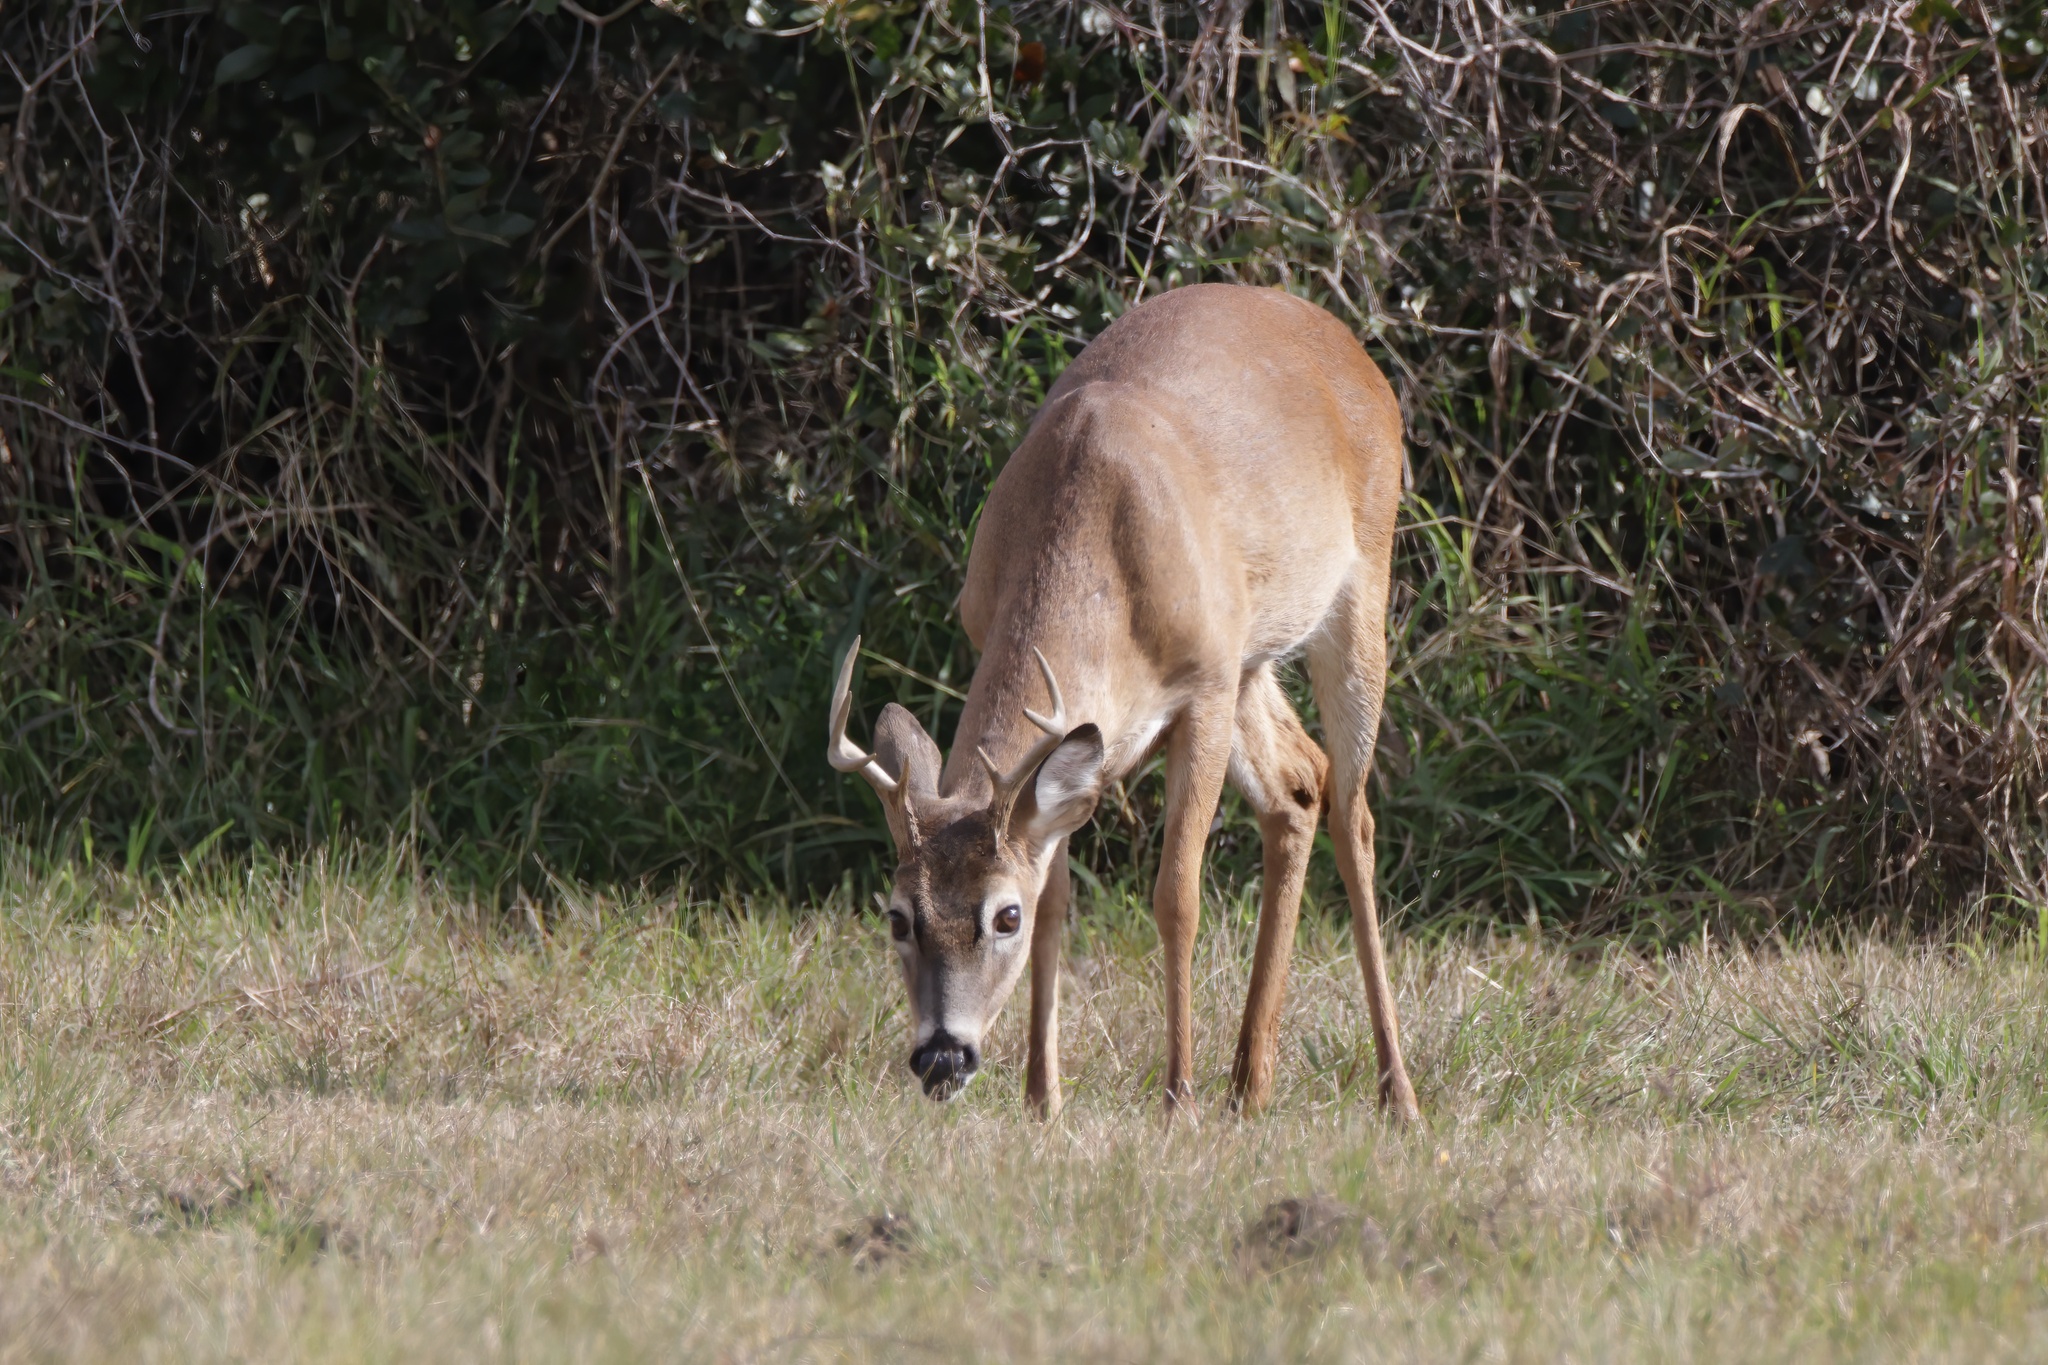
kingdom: Animalia
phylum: Chordata
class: Mammalia
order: Artiodactyla
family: Cervidae
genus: Odocoileus
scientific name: Odocoileus virginianus
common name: White-tailed deer
